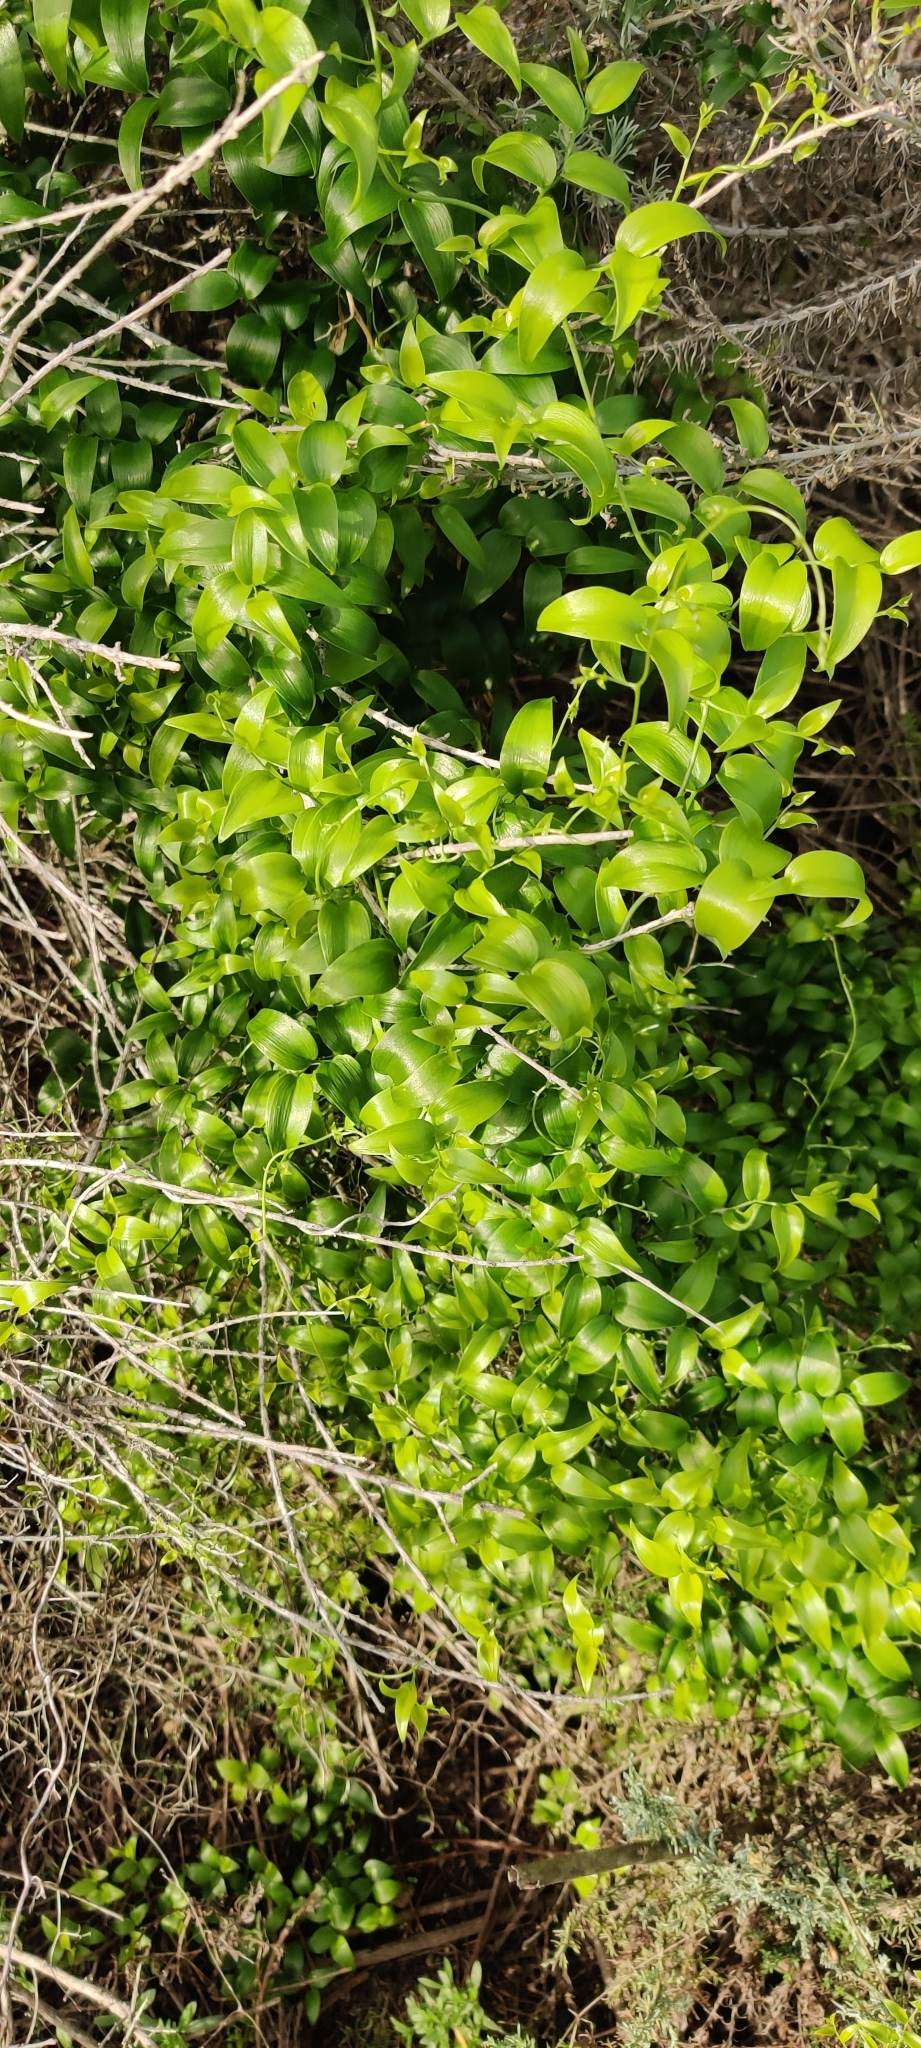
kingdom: Plantae
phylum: Tracheophyta
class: Liliopsida
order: Asparagales
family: Asparagaceae
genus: Asparagus
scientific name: Asparagus asparagoides
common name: African asparagus fern
